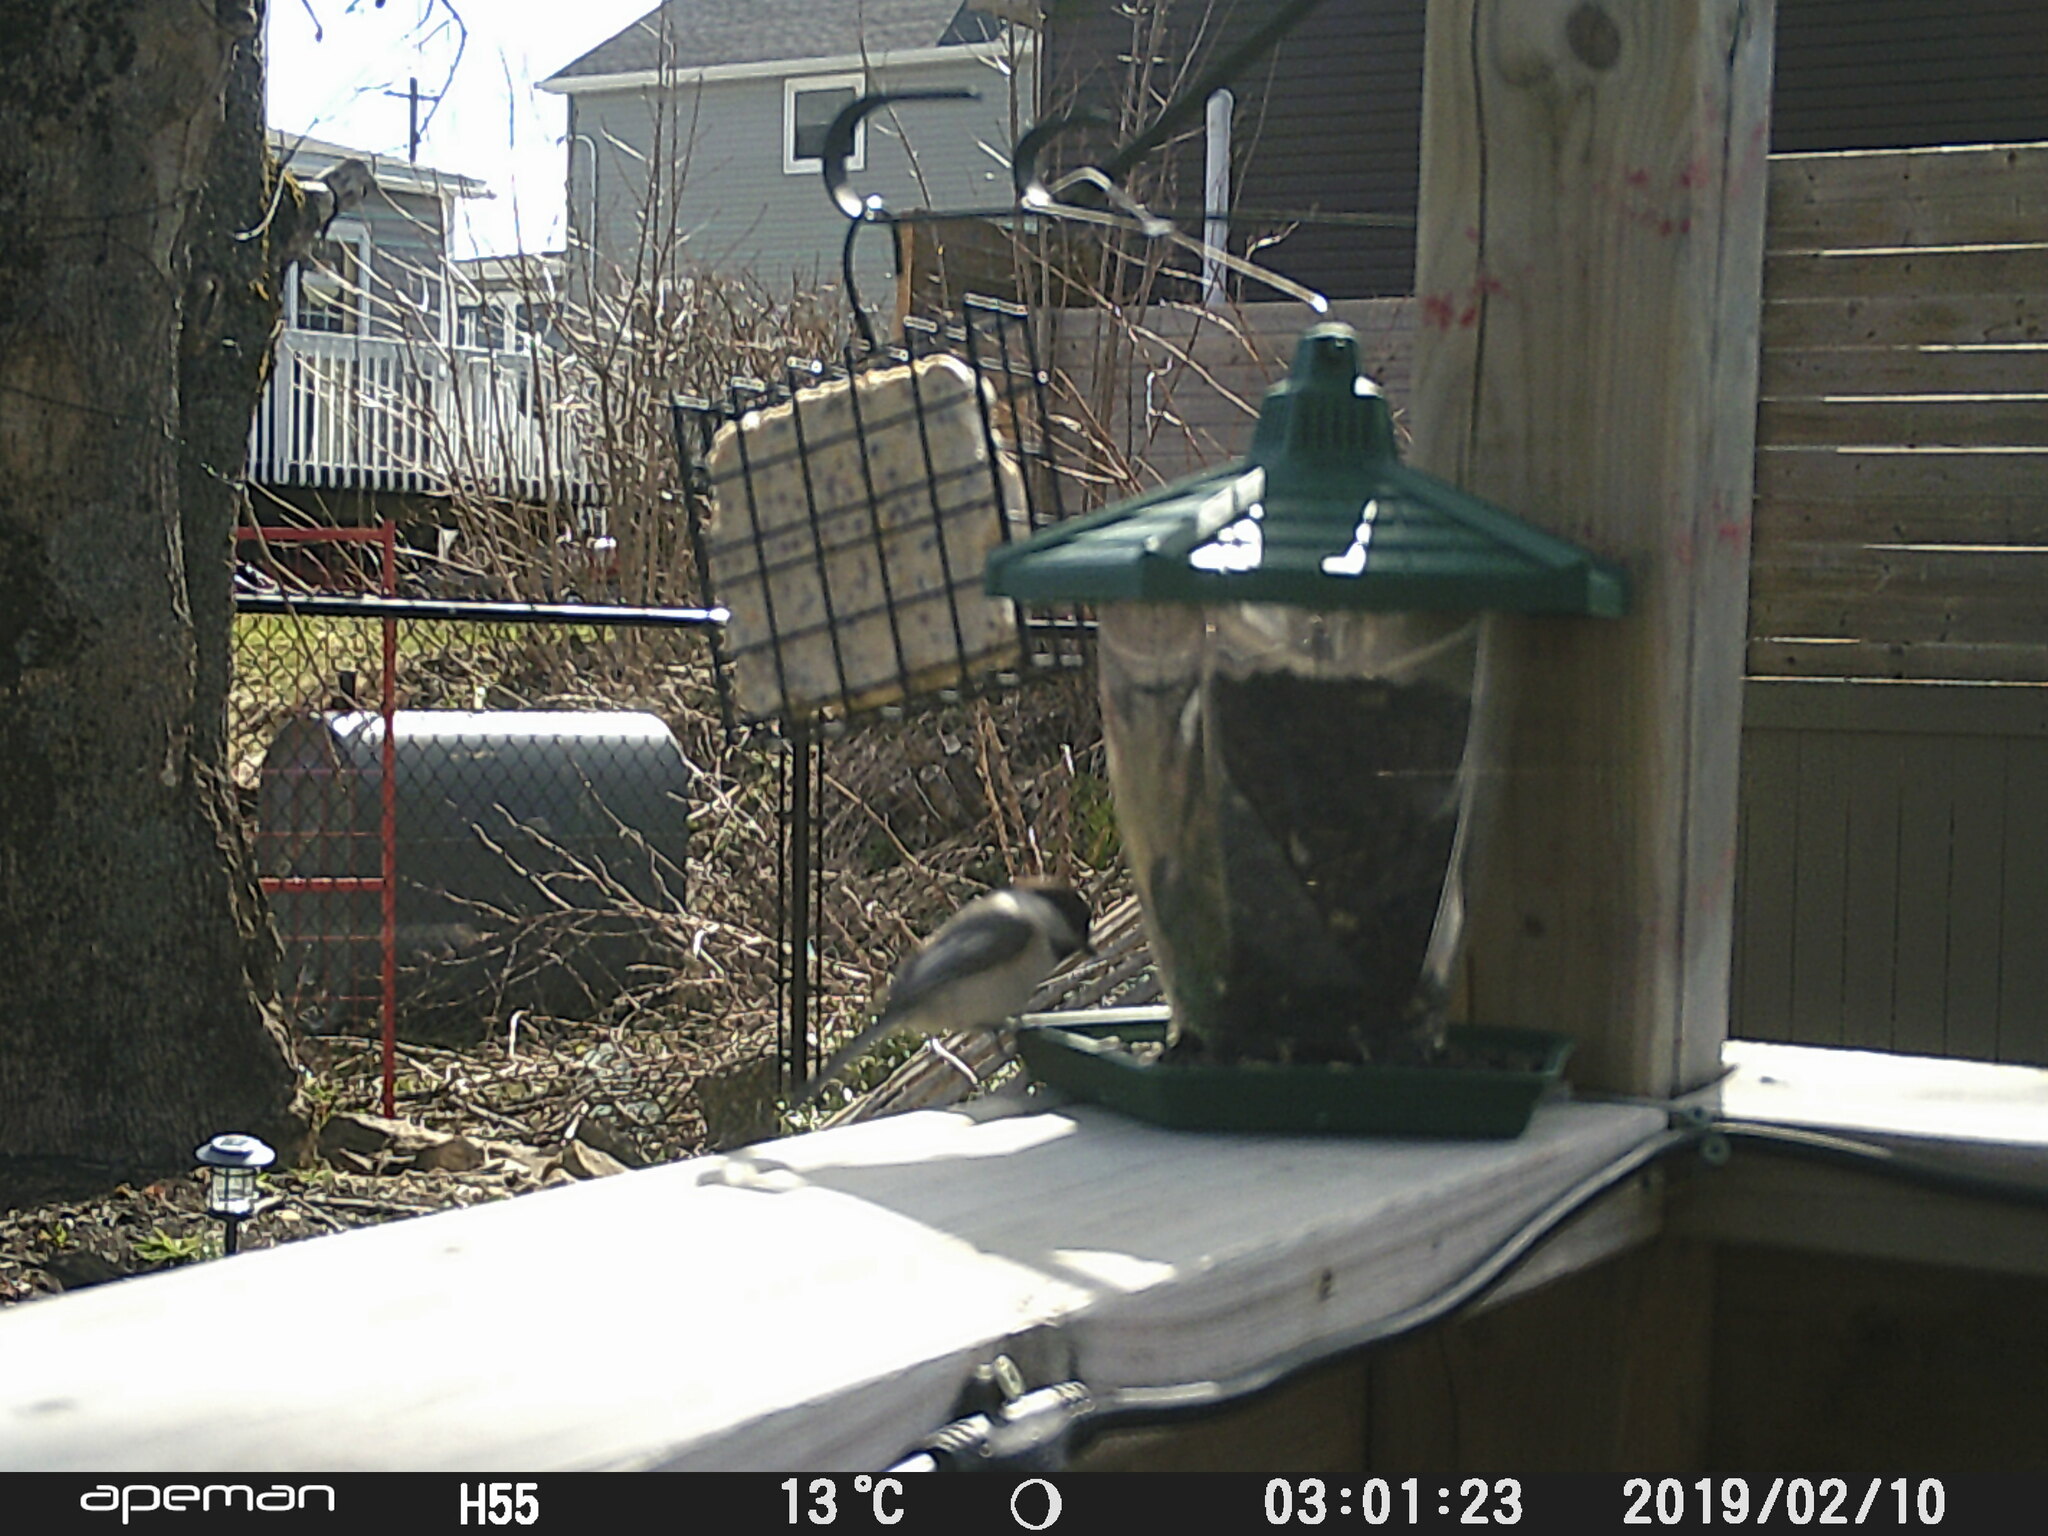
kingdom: Animalia
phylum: Chordata
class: Aves
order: Passeriformes
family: Paridae
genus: Poecile
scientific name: Poecile atricapillus
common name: Black-capped chickadee
